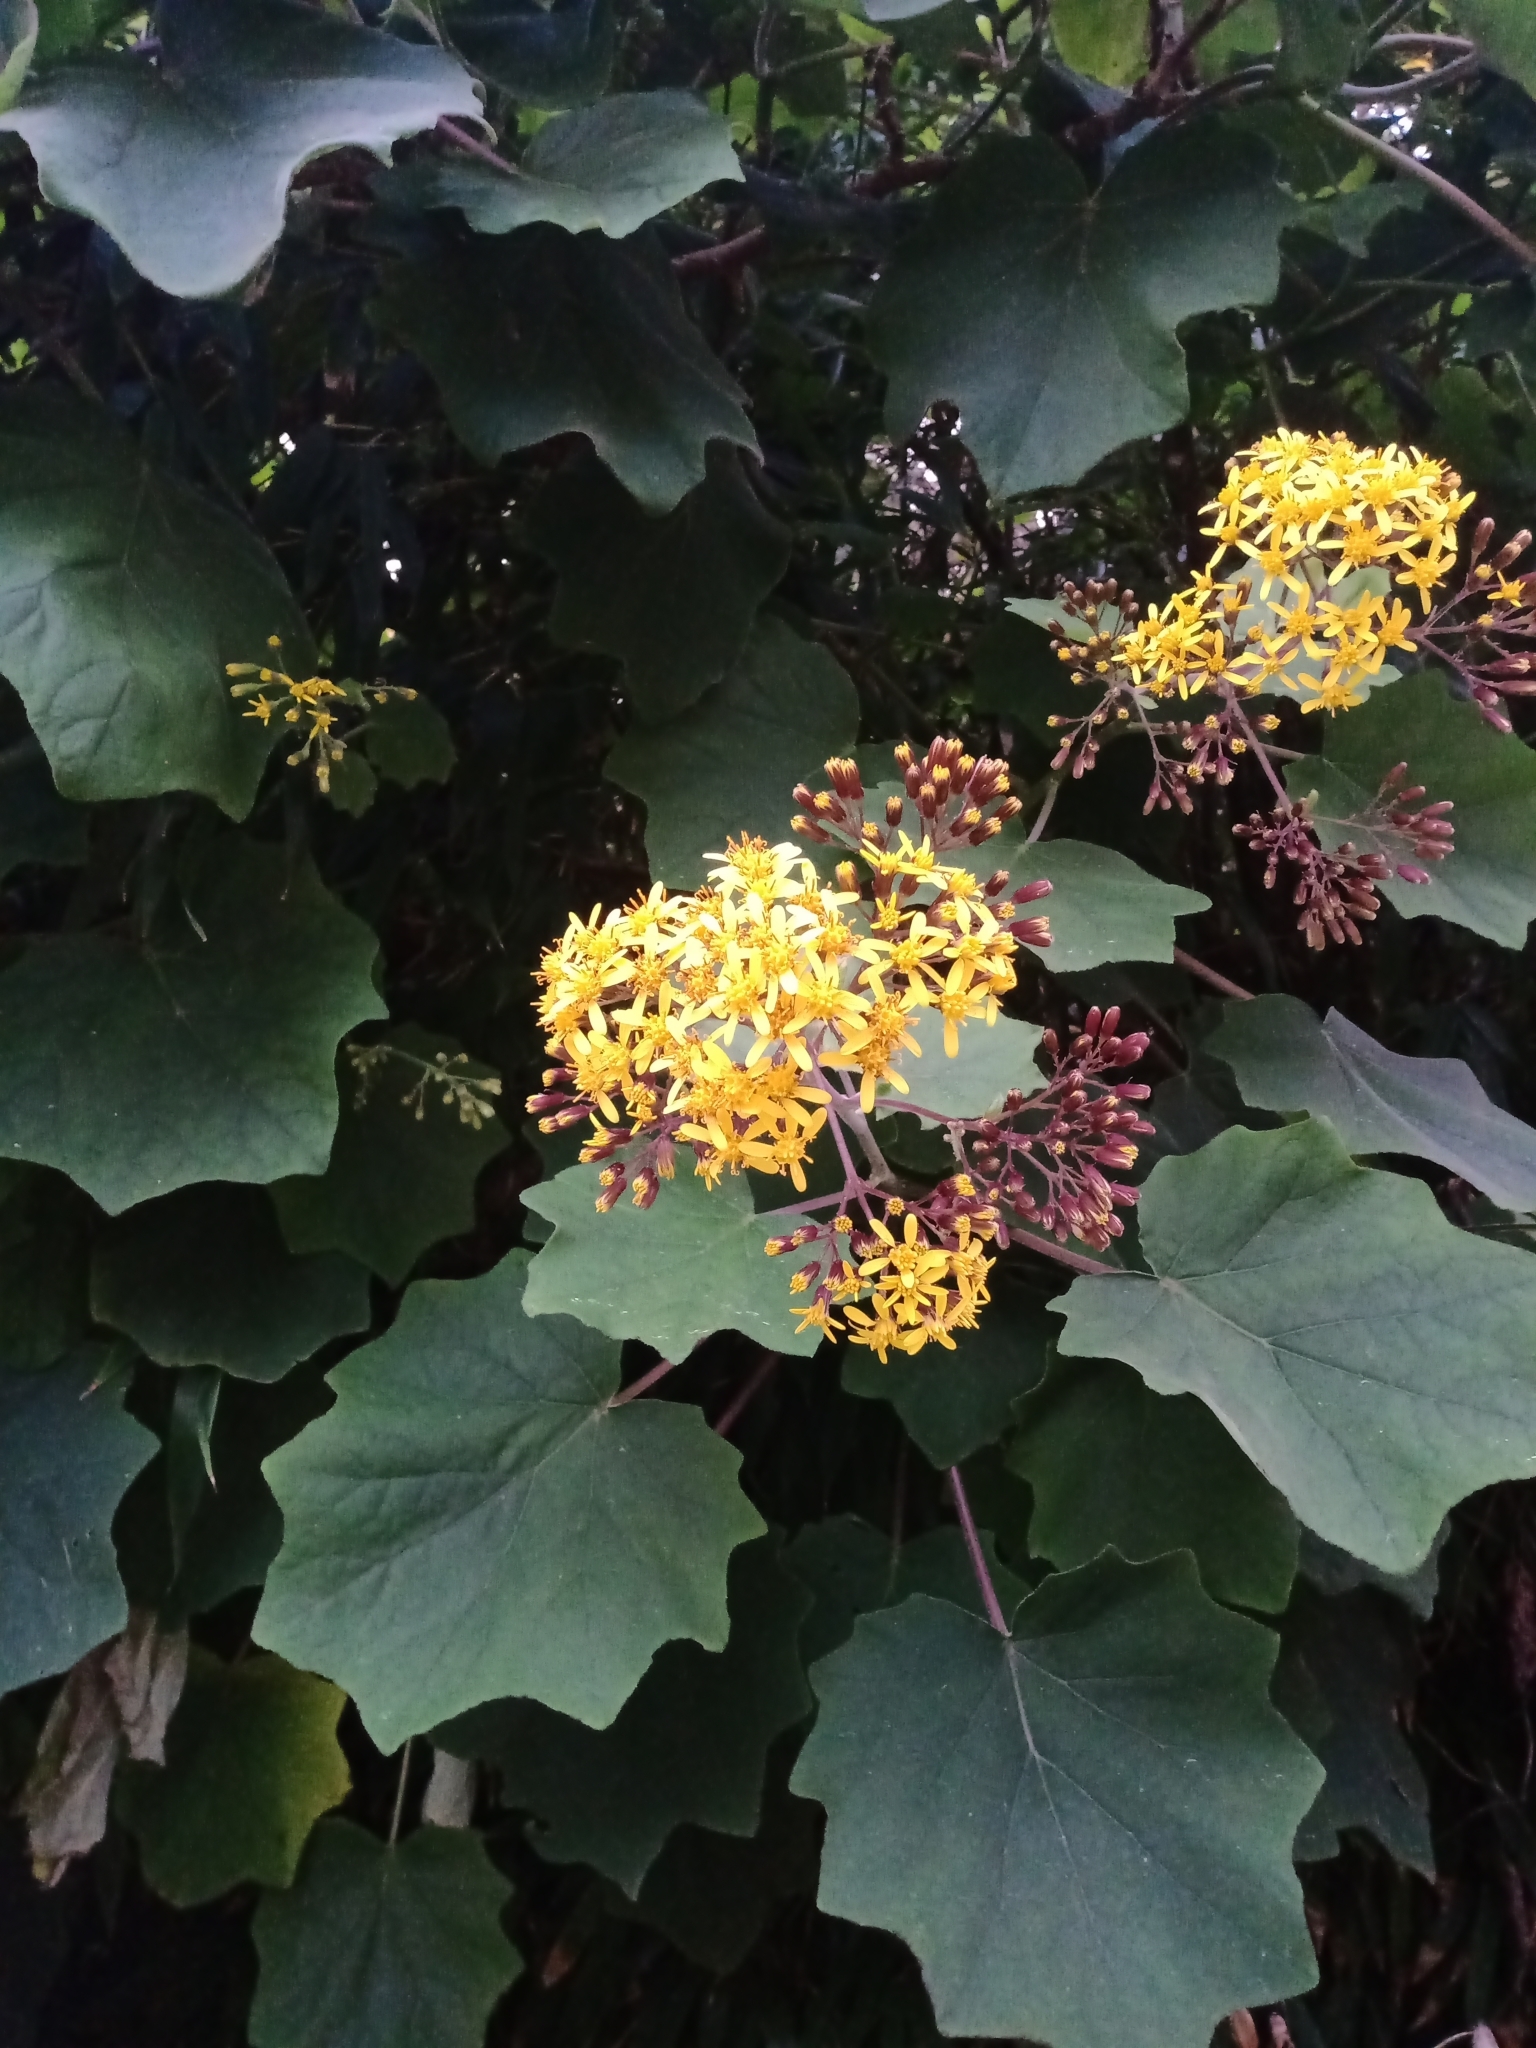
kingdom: Plantae
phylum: Tracheophyta
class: Magnoliopsida
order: Asterales
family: Asteraceae
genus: Roldana
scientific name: Roldana petasitis
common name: California-geranium
